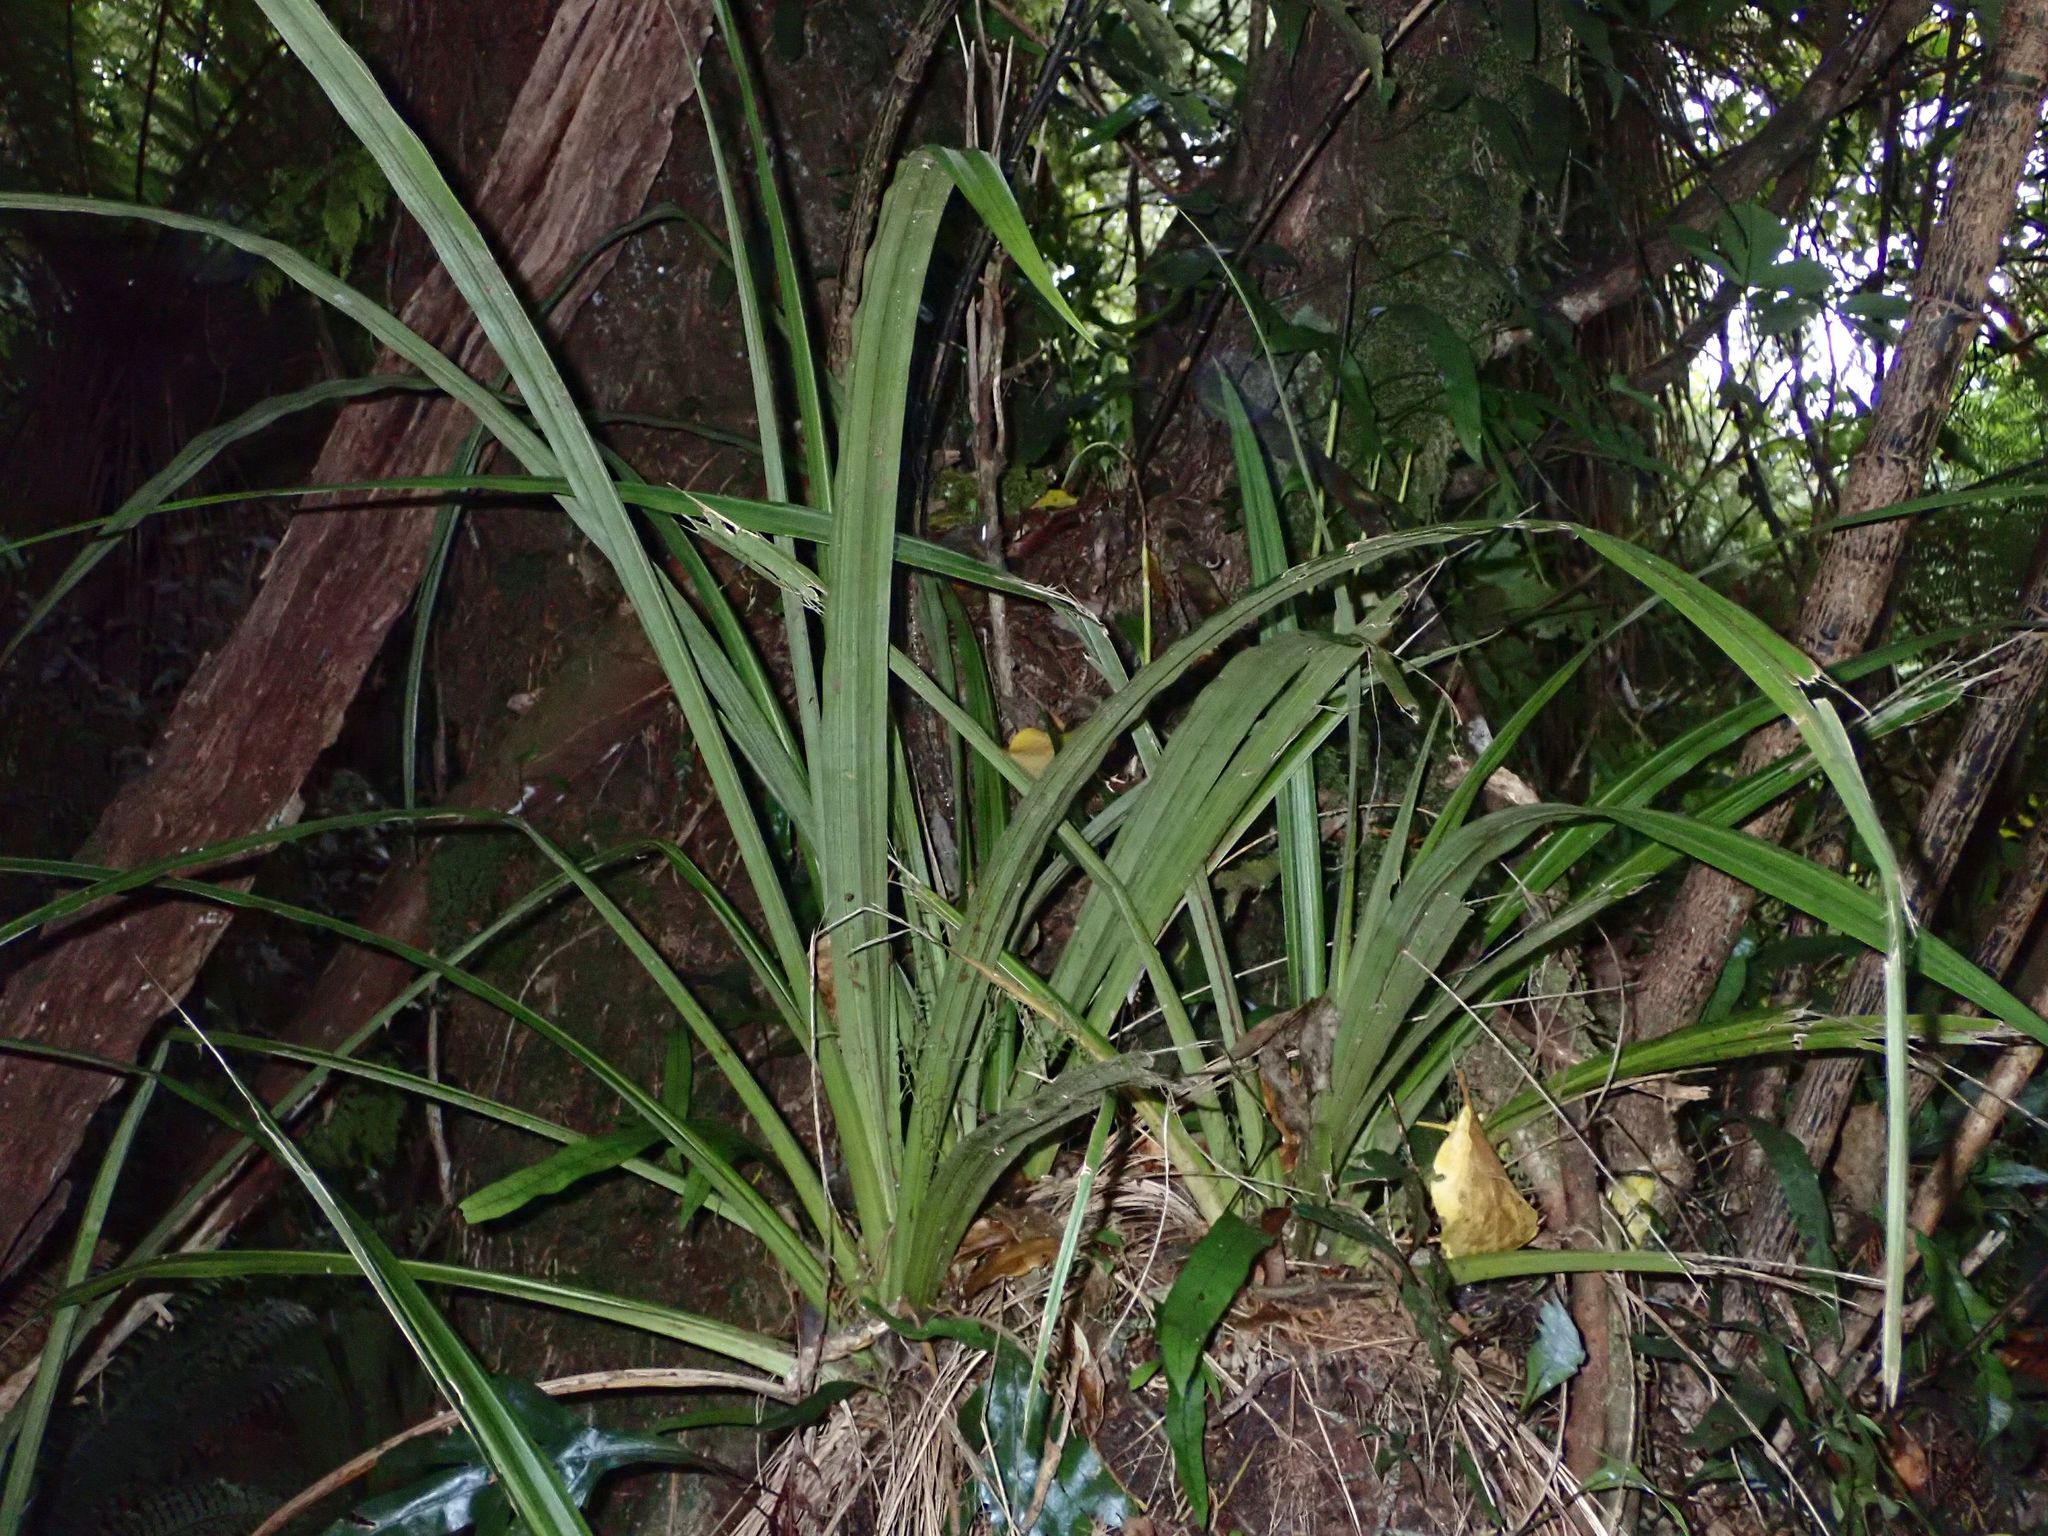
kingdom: Plantae
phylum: Tracheophyta
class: Liliopsida
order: Asparagales
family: Asteliaceae
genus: Astelia
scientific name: Astelia fragrans
